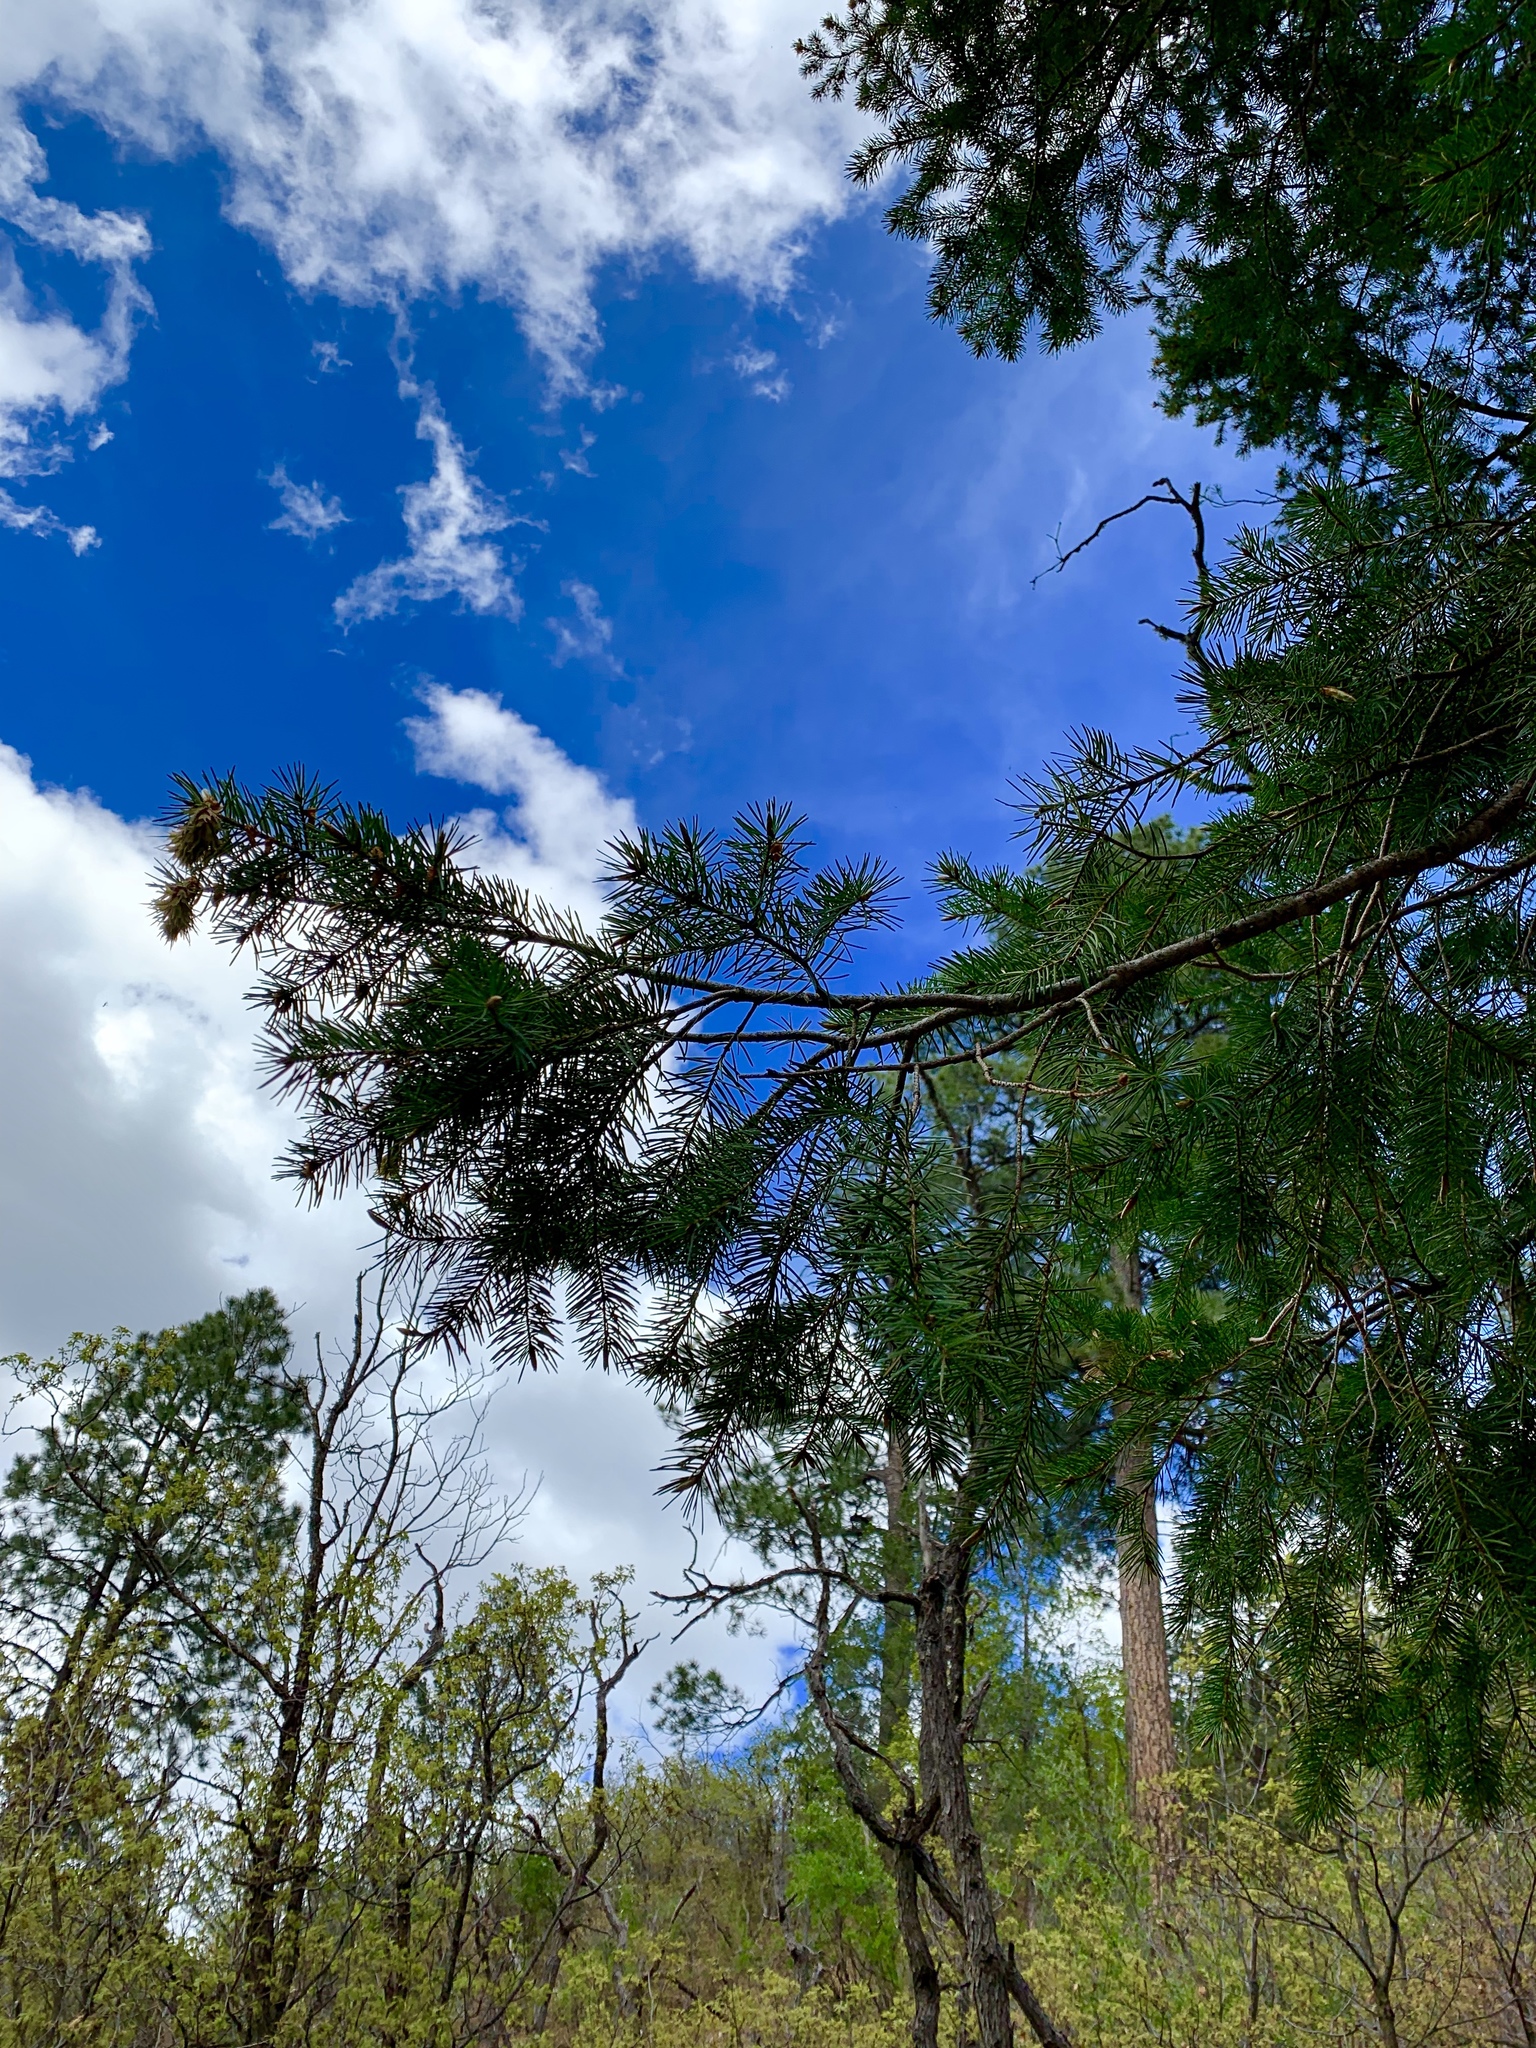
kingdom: Plantae
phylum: Tracheophyta
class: Pinopsida
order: Pinales
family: Pinaceae
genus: Pseudotsuga
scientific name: Pseudotsuga menziesii
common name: Douglas fir
